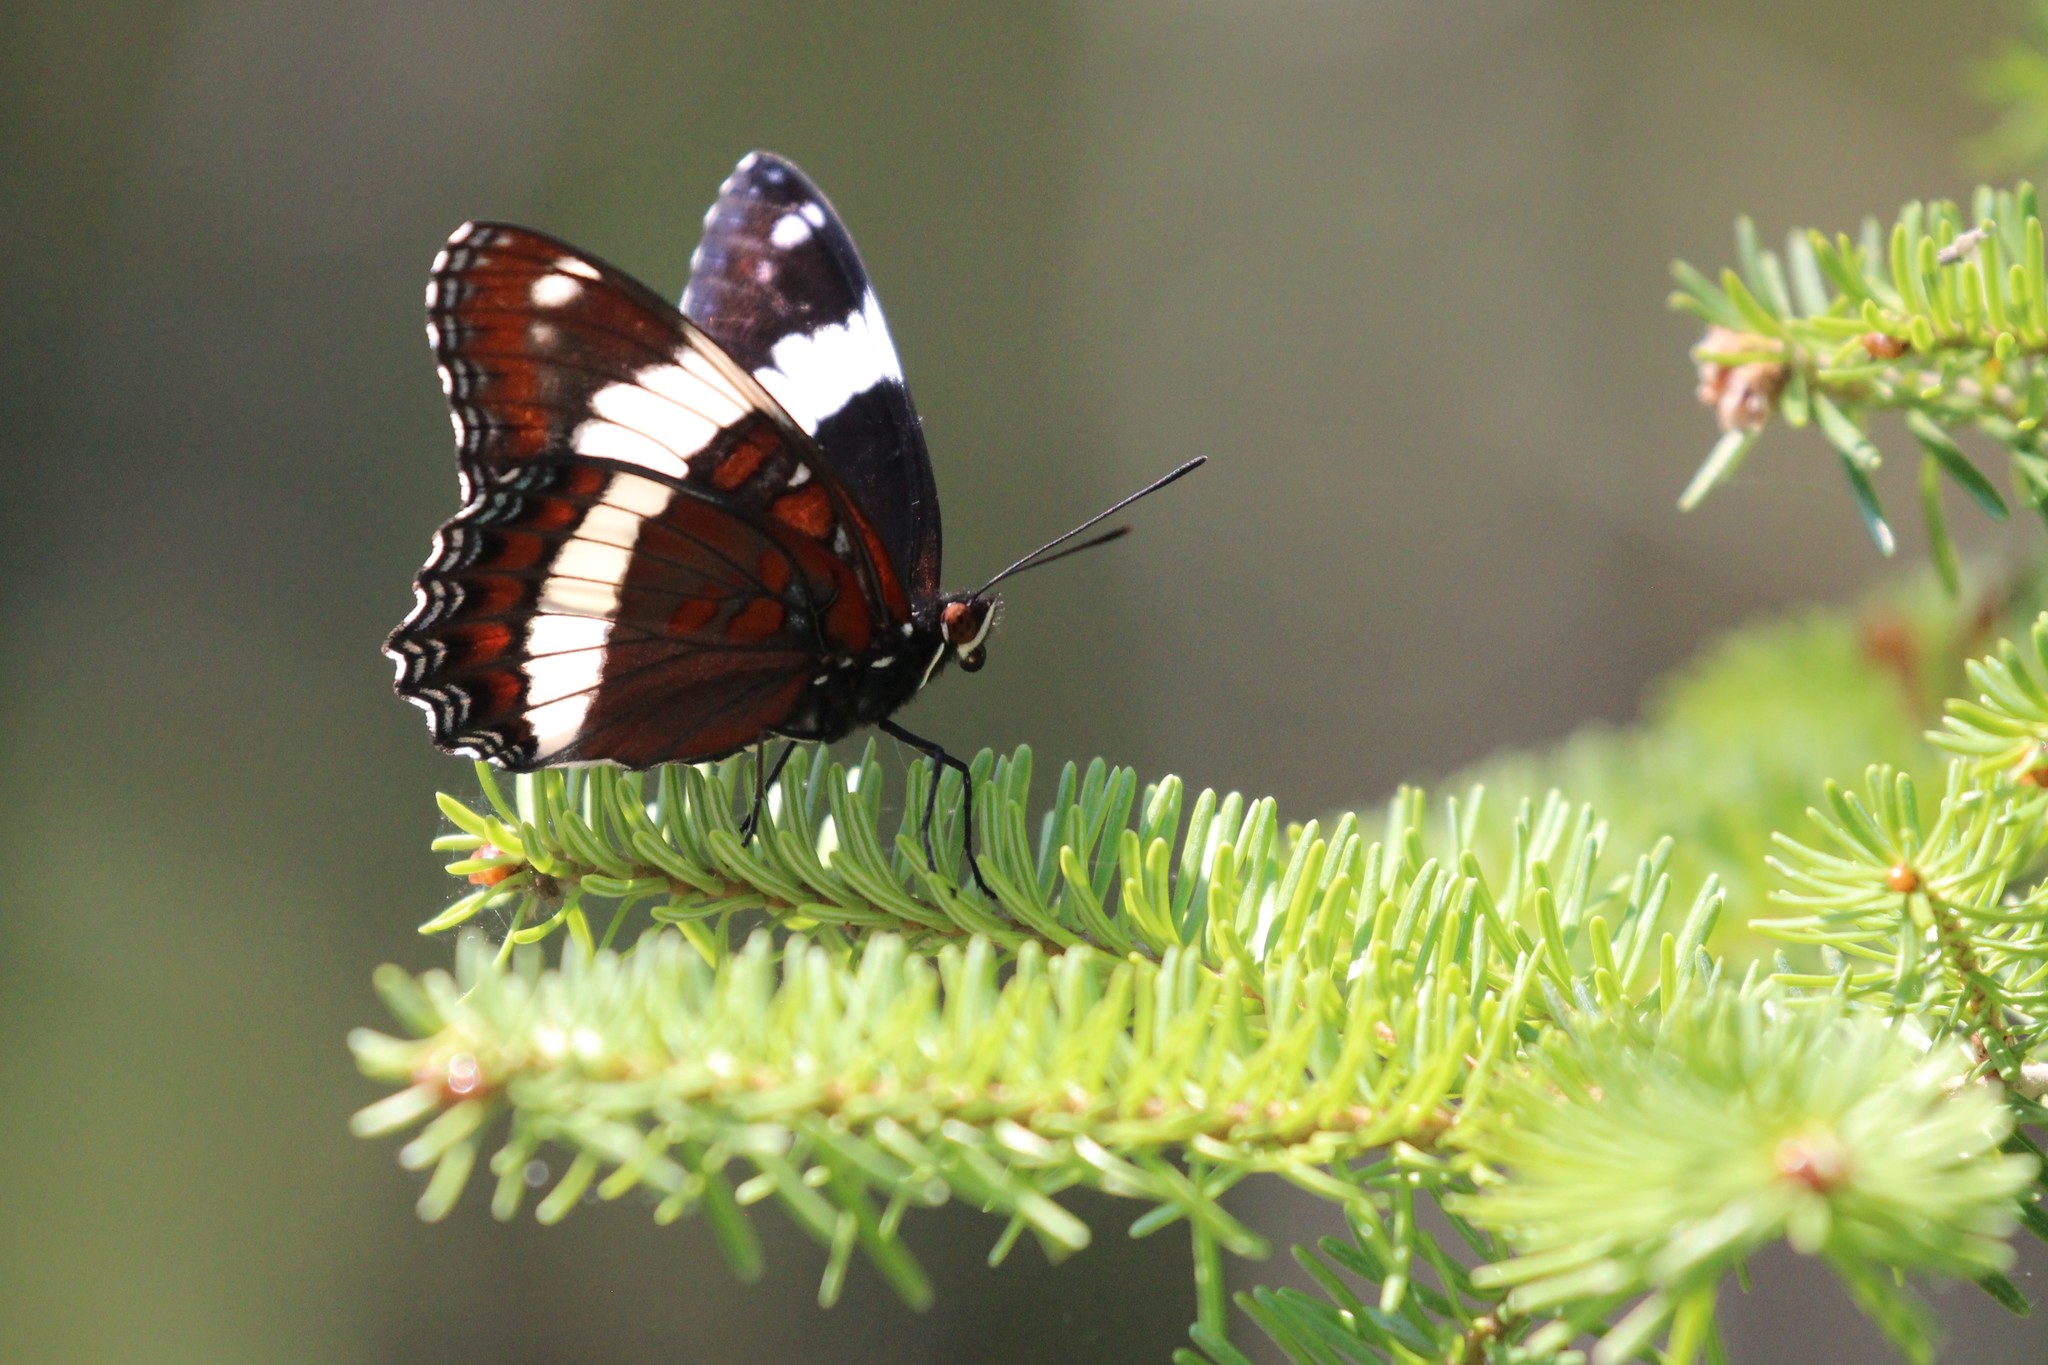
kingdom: Animalia
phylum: Arthropoda
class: Insecta
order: Lepidoptera
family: Nymphalidae
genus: Limenitis
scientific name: Limenitis arthemis
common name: Red-spotted admiral
